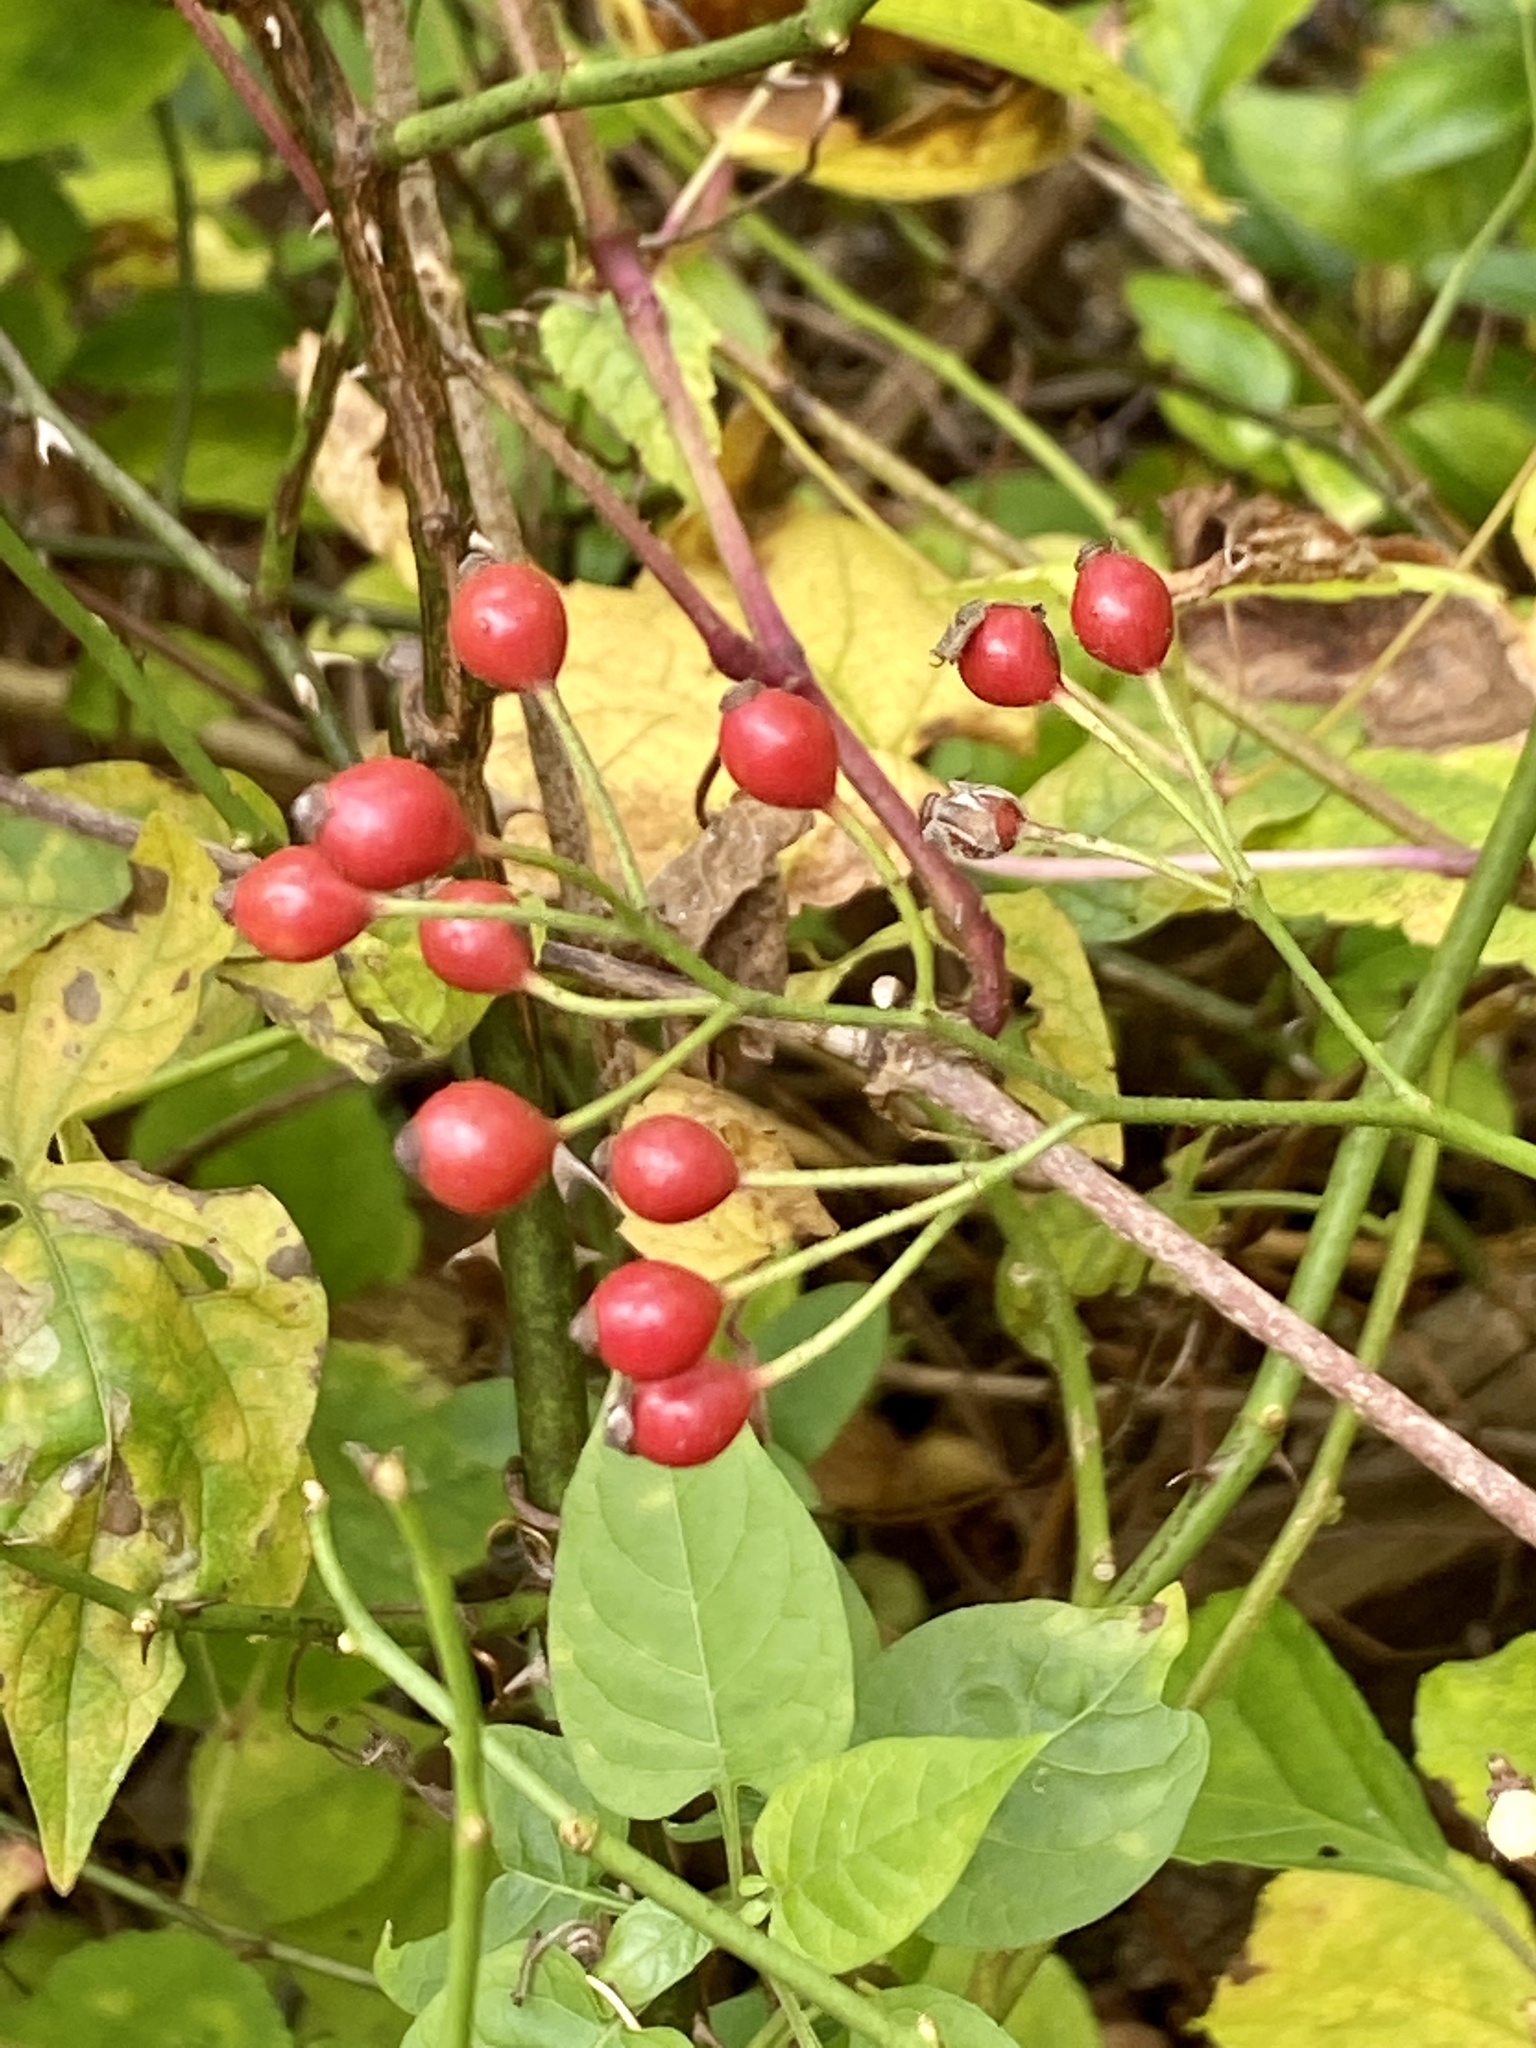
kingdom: Plantae
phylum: Tracheophyta
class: Magnoliopsida
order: Rosales
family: Rosaceae
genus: Rosa
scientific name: Rosa multiflora
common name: Multiflora rose
